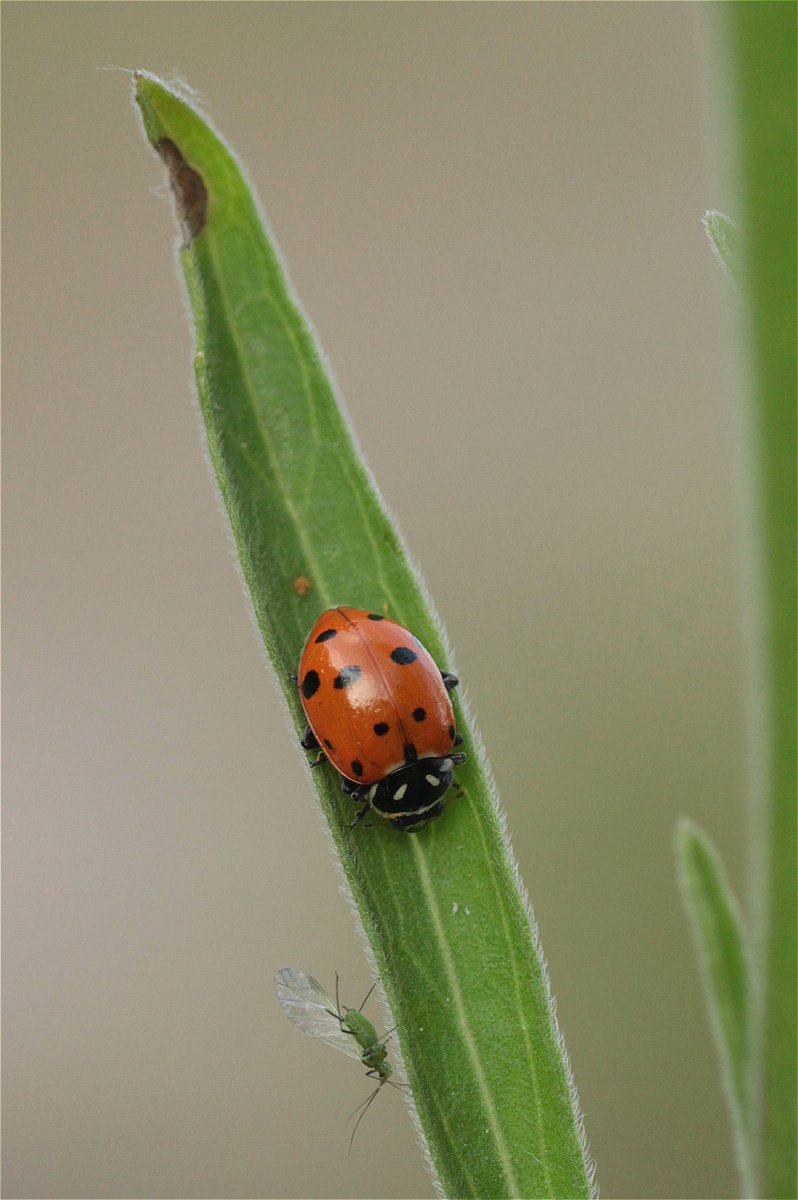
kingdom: Animalia
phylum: Arthropoda
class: Insecta
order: Coleoptera
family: Coccinellidae
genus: Hippodamia
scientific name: Hippodamia convergens
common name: Convergent lady beetle
